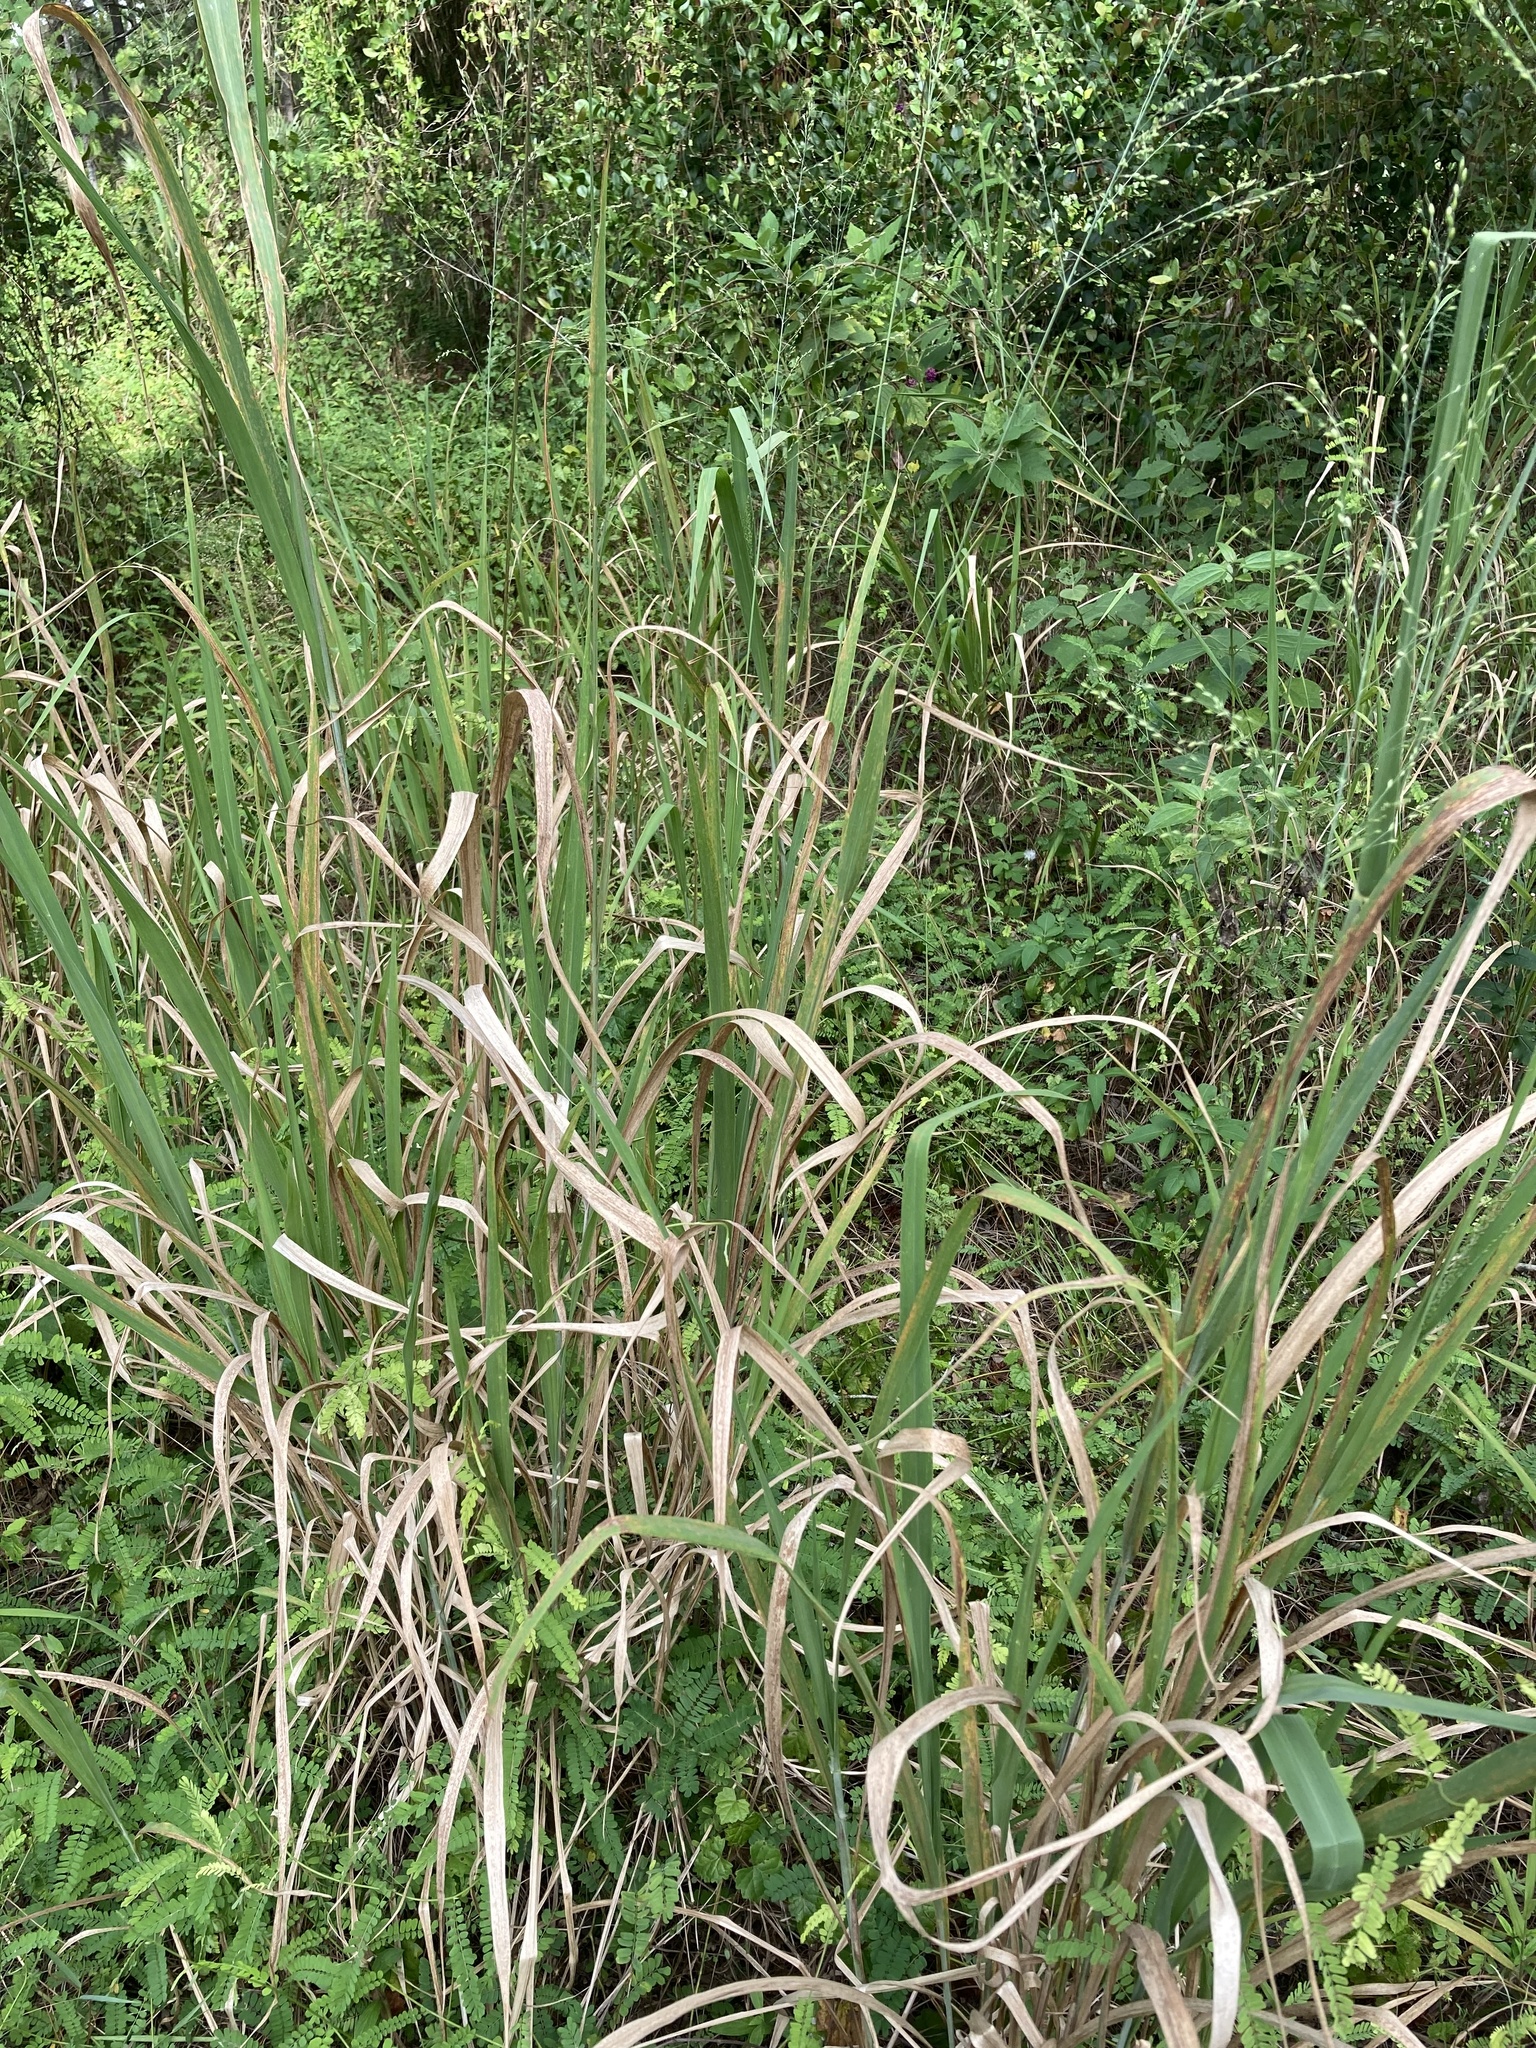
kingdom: Plantae
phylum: Tracheophyta
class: Liliopsida
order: Poales
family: Poaceae
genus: Megathyrsus
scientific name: Megathyrsus maximus
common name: Guineagrass
